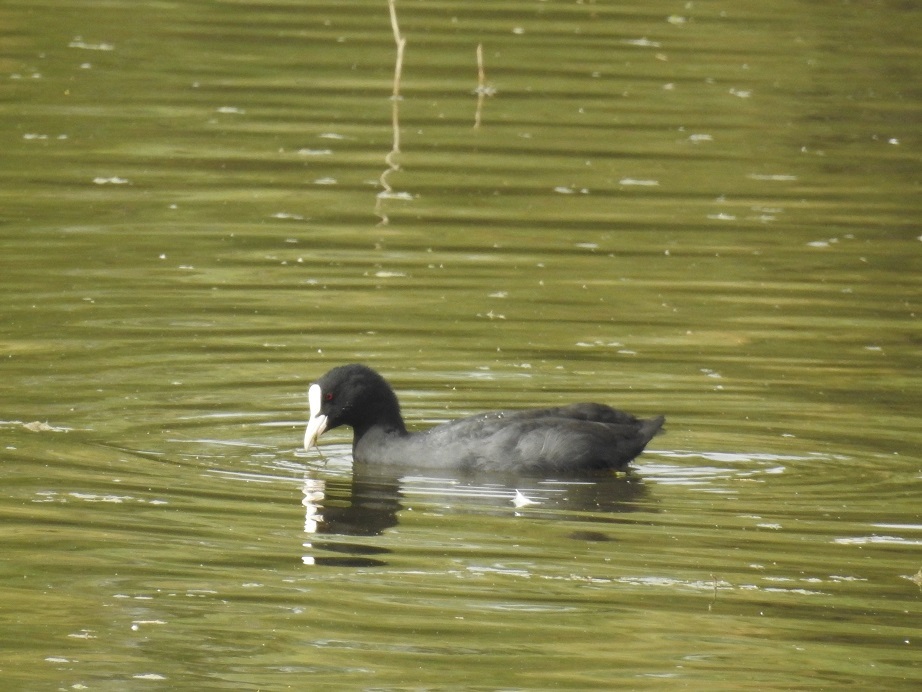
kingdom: Animalia
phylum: Chordata
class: Aves
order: Gruiformes
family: Rallidae
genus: Fulica
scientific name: Fulica atra
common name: Eurasian coot
